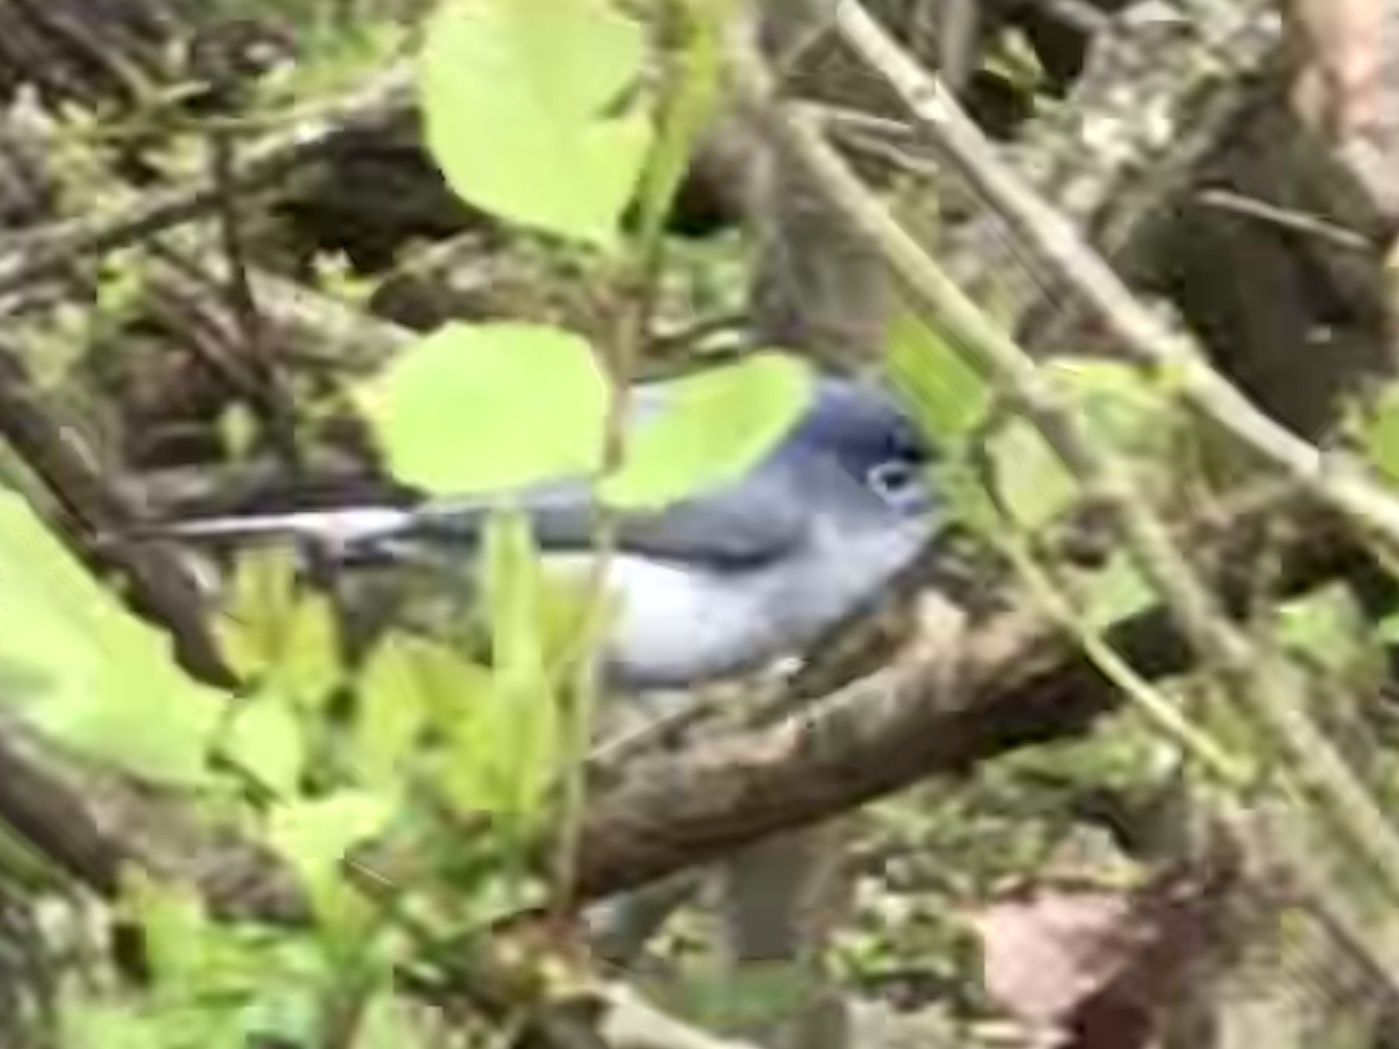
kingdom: Animalia
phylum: Chordata
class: Aves
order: Passeriformes
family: Polioptilidae
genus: Polioptila
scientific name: Polioptila caerulea
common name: Blue-gray gnatcatcher
